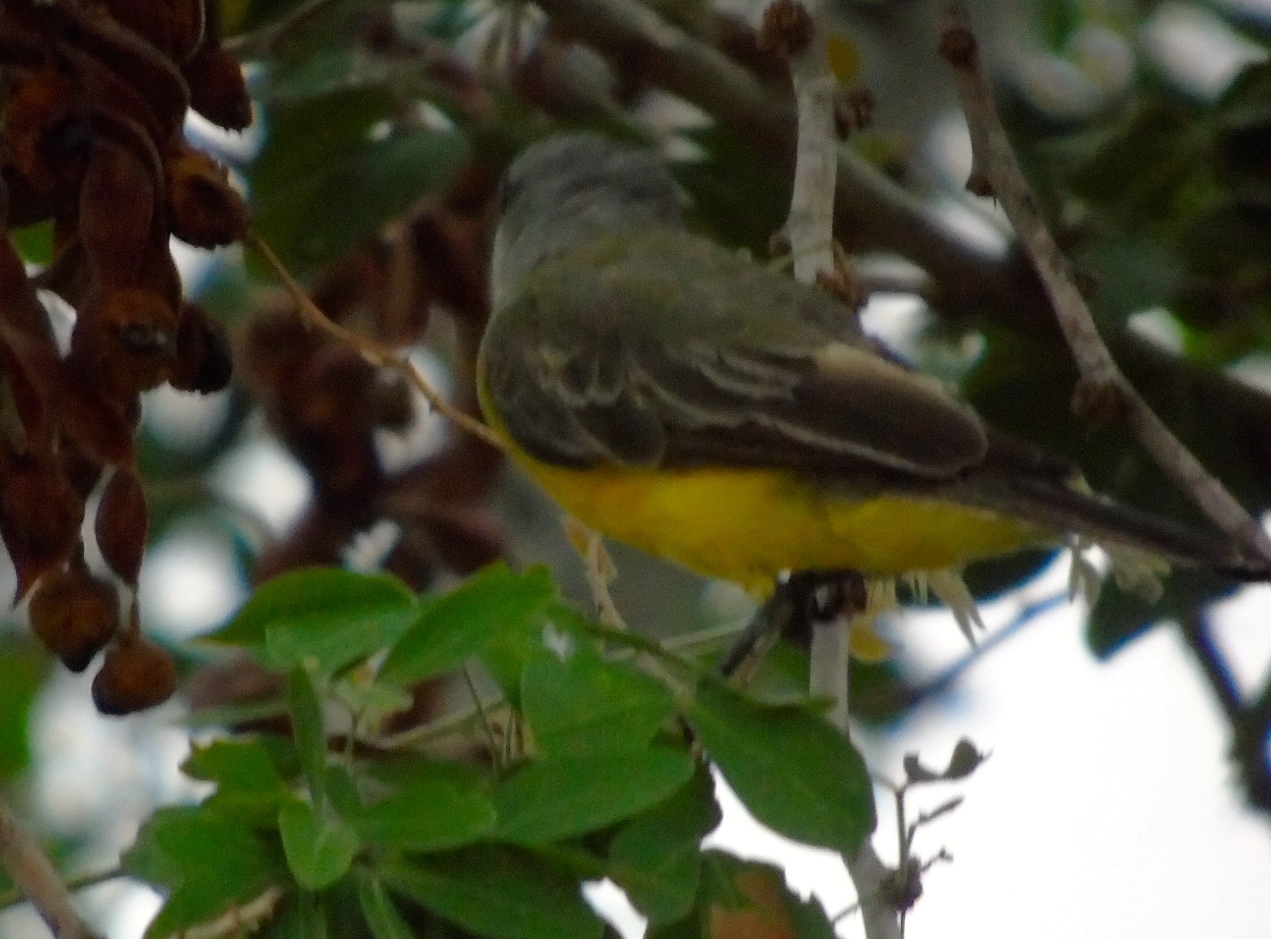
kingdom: Animalia
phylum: Chordata
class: Aves
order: Passeriformes
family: Tyrannidae
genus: Tyrannus
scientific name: Tyrannus melancholicus
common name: Tropical kingbird
